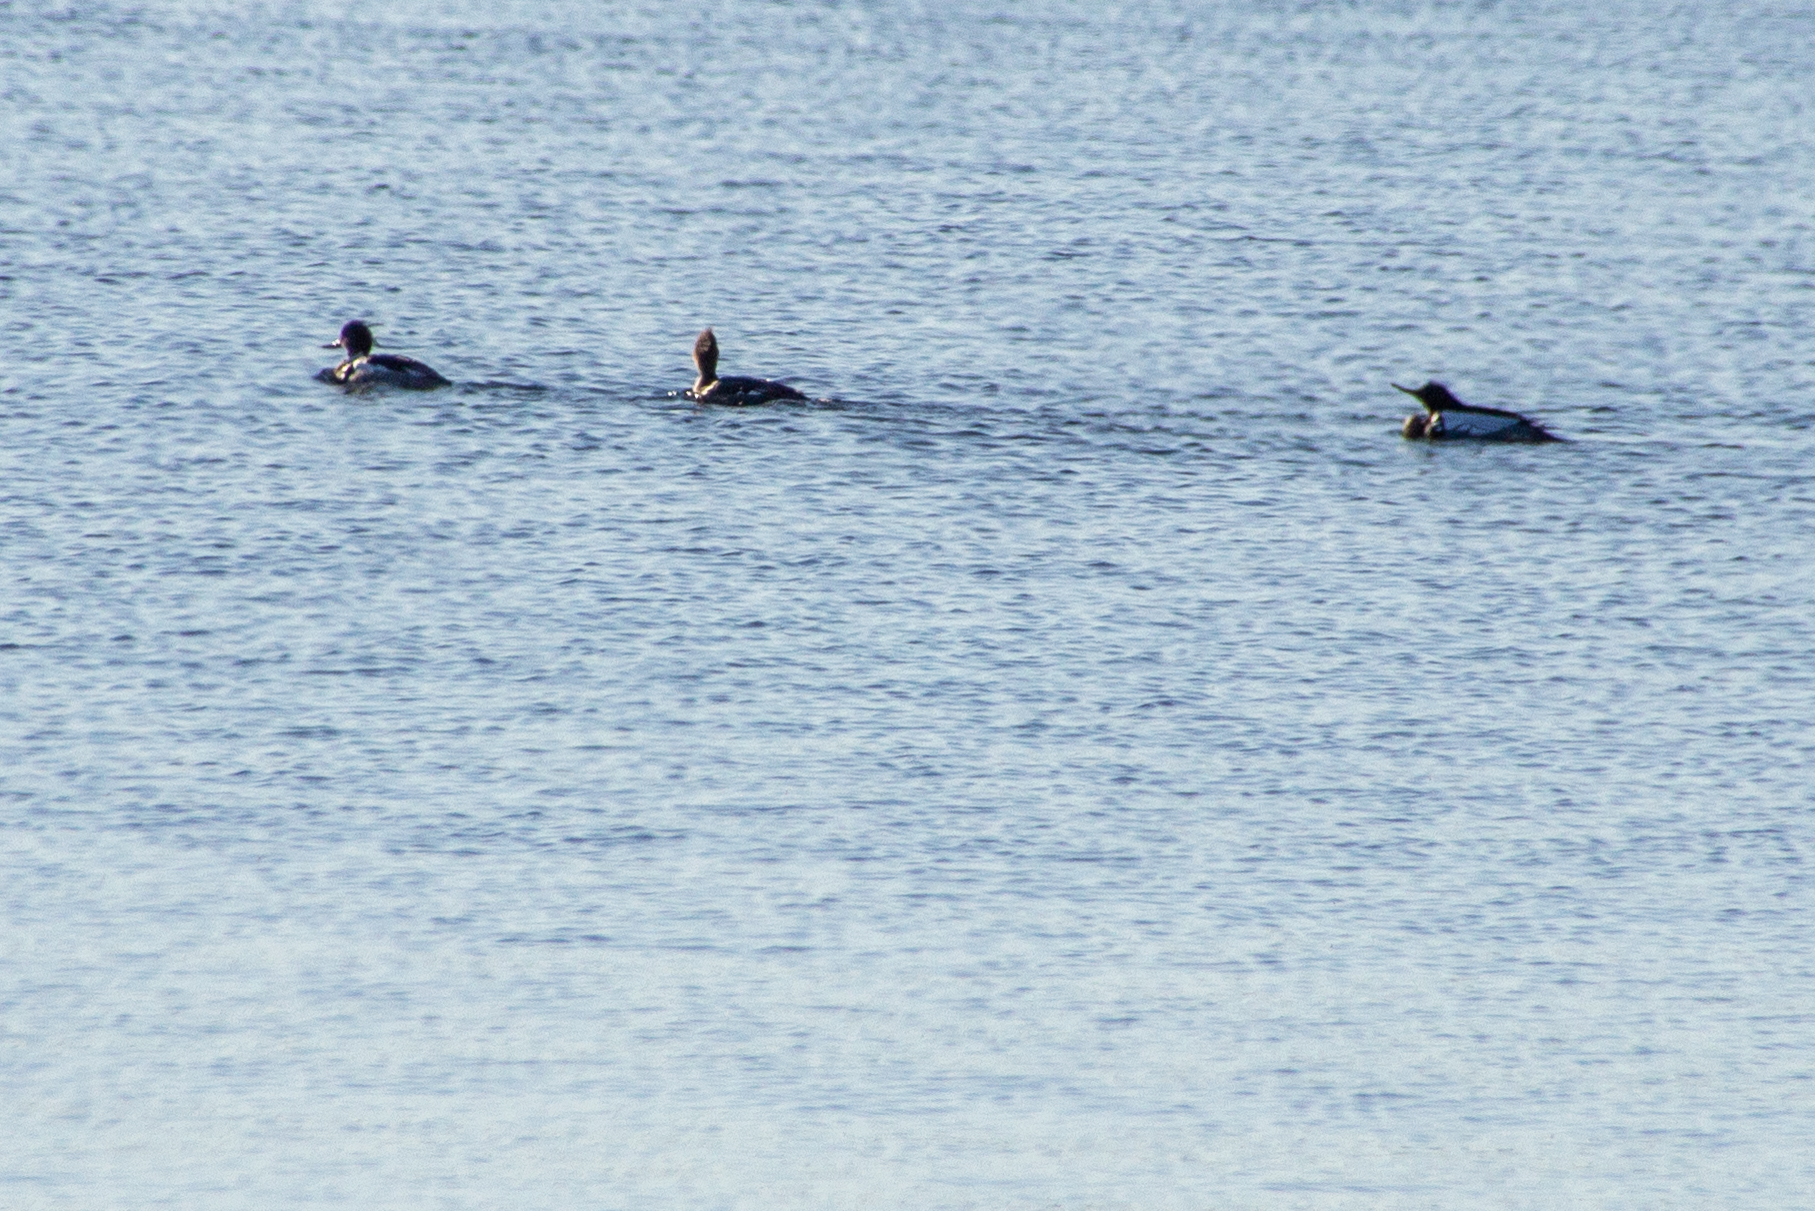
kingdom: Animalia
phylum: Chordata
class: Aves
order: Anseriformes
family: Anatidae
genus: Mergus
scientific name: Mergus serrator
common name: Red-breasted merganser
